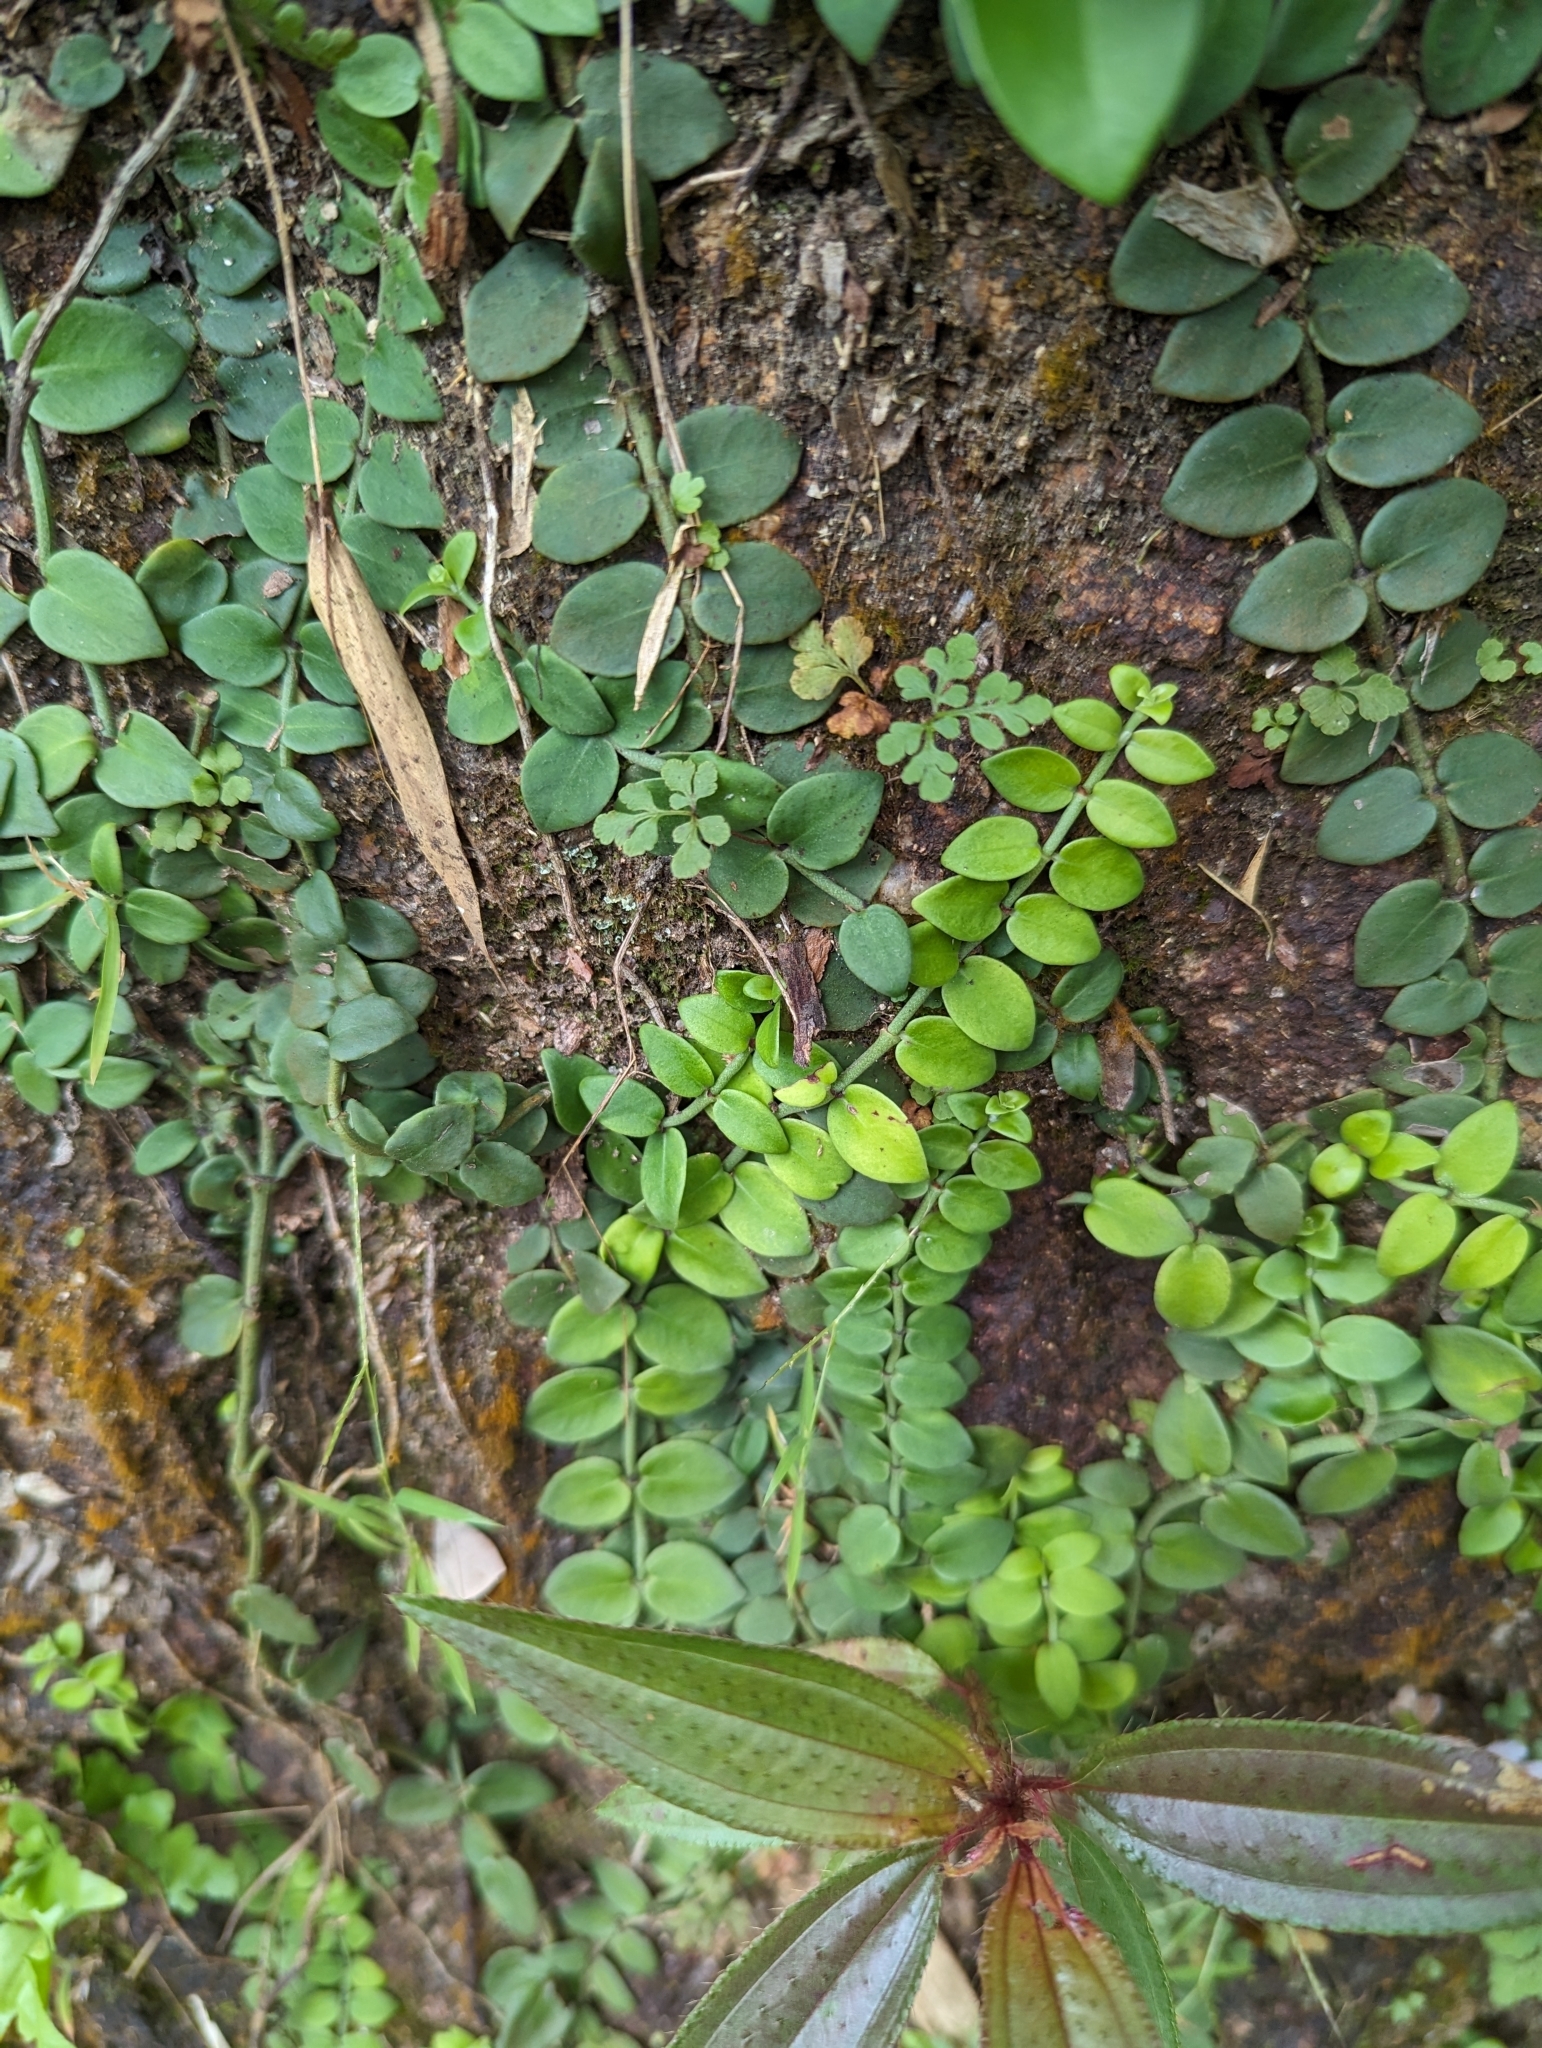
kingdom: Plantae
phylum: Tracheophyta
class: Magnoliopsida
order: Gentianales
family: Rubiaceae
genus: Psychotria
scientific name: Psychotria serpens
